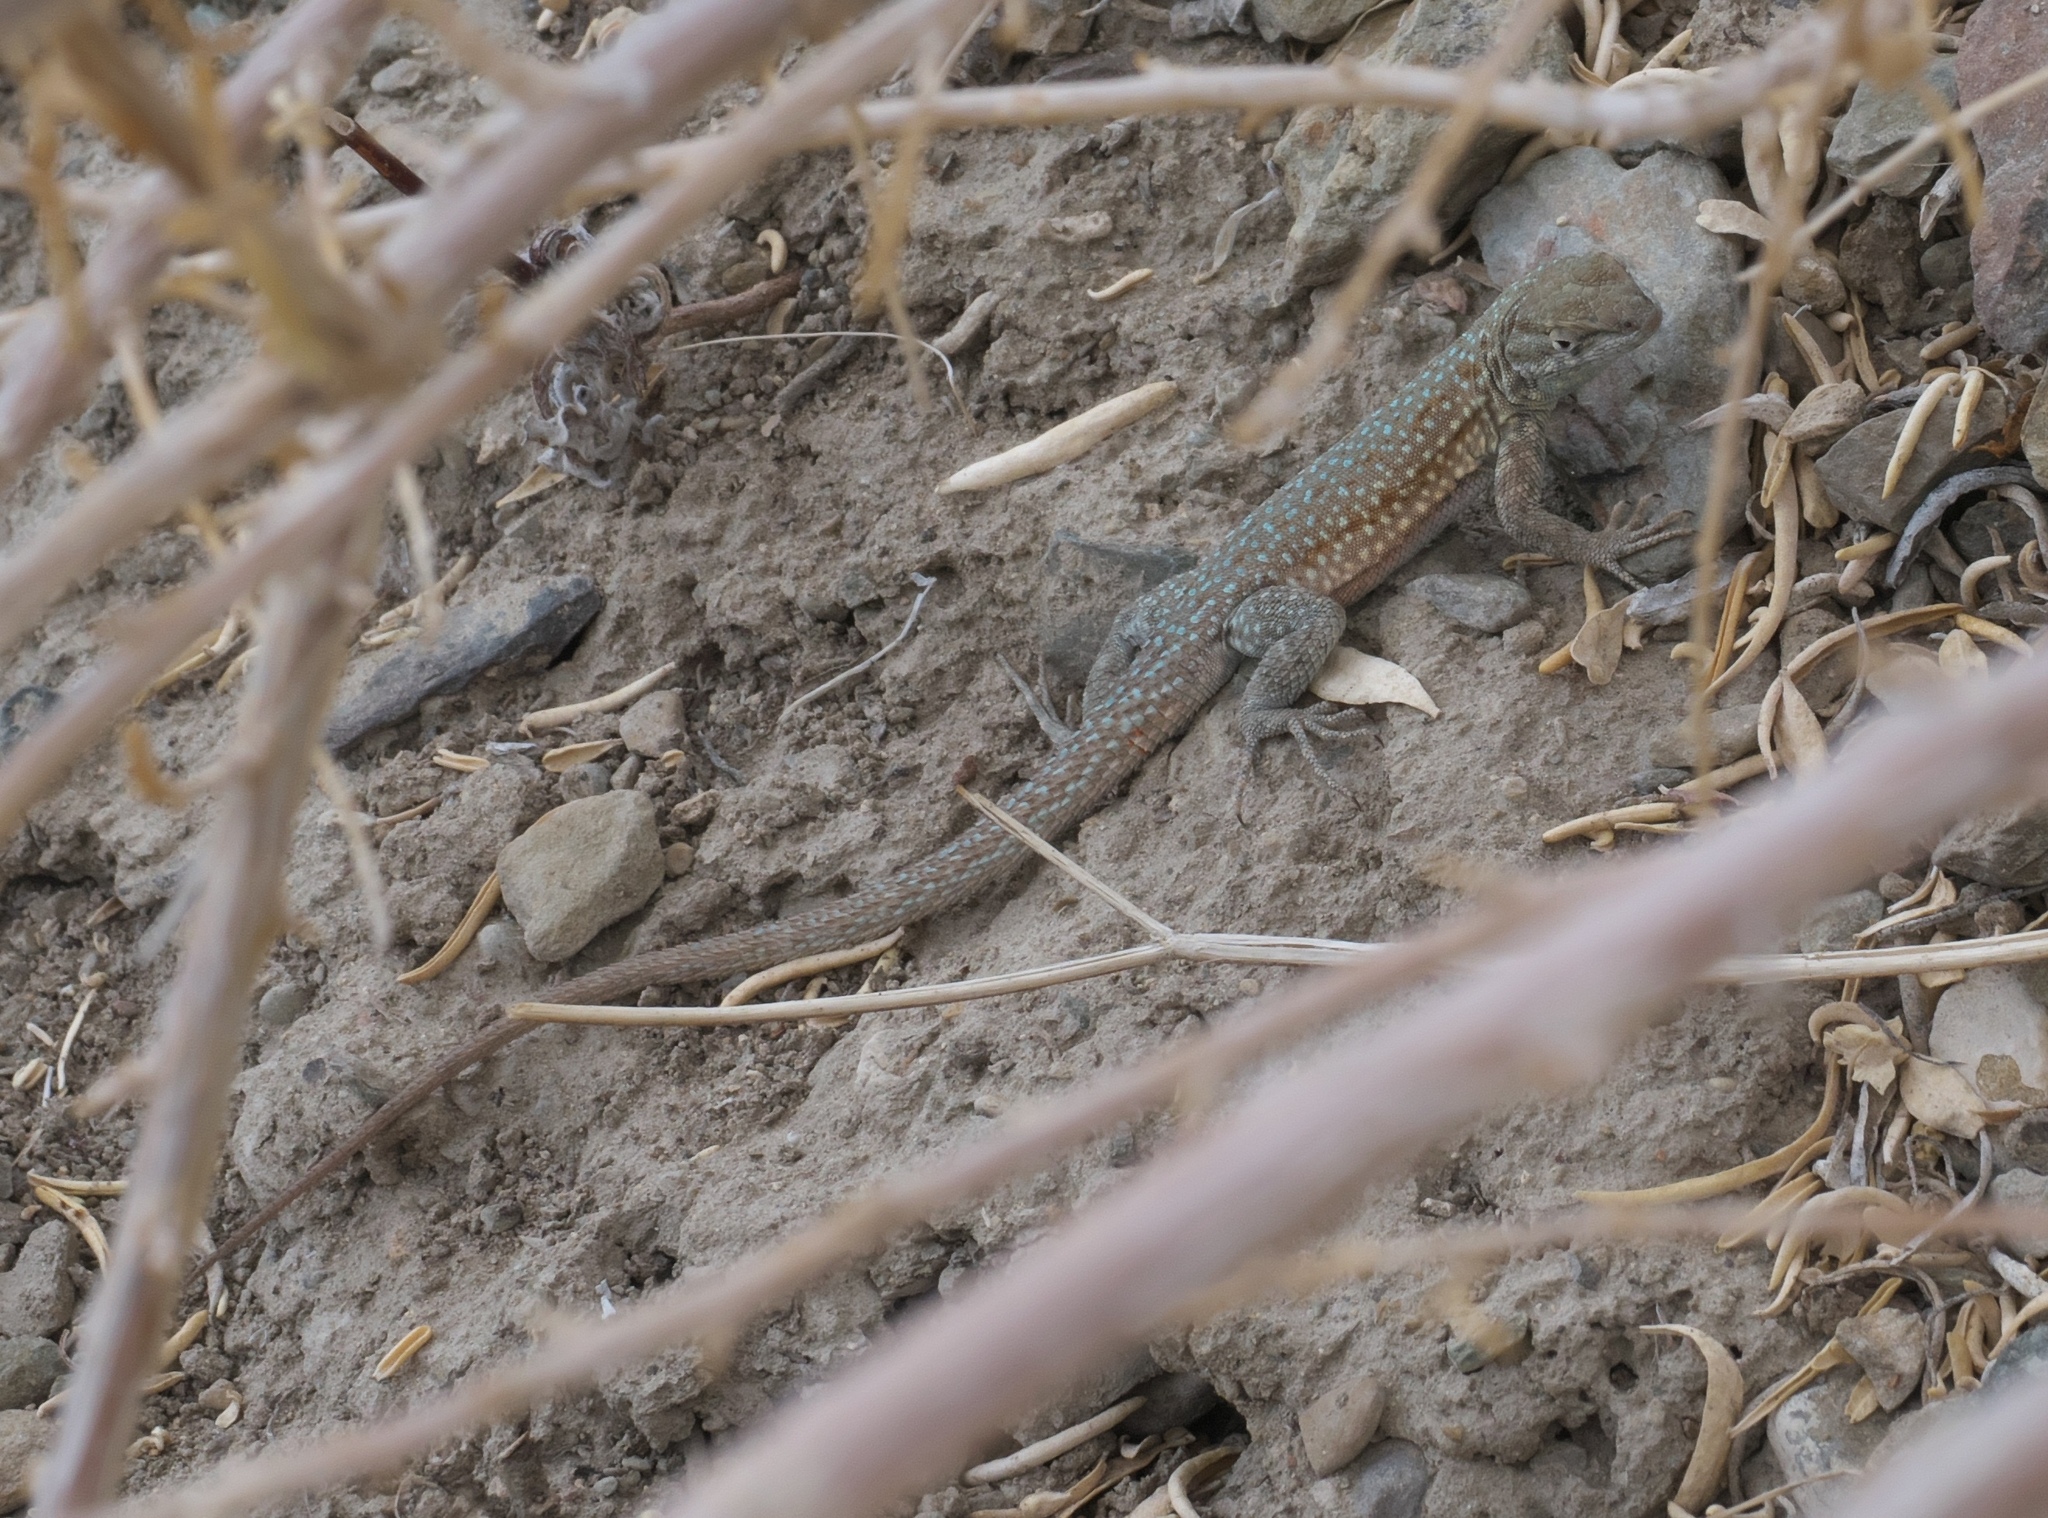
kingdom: Animalia
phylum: Chordata
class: Squamata
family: Phrynosomatidae
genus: Uta
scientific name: Uta stansburiana
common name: Side-blotched lizard
